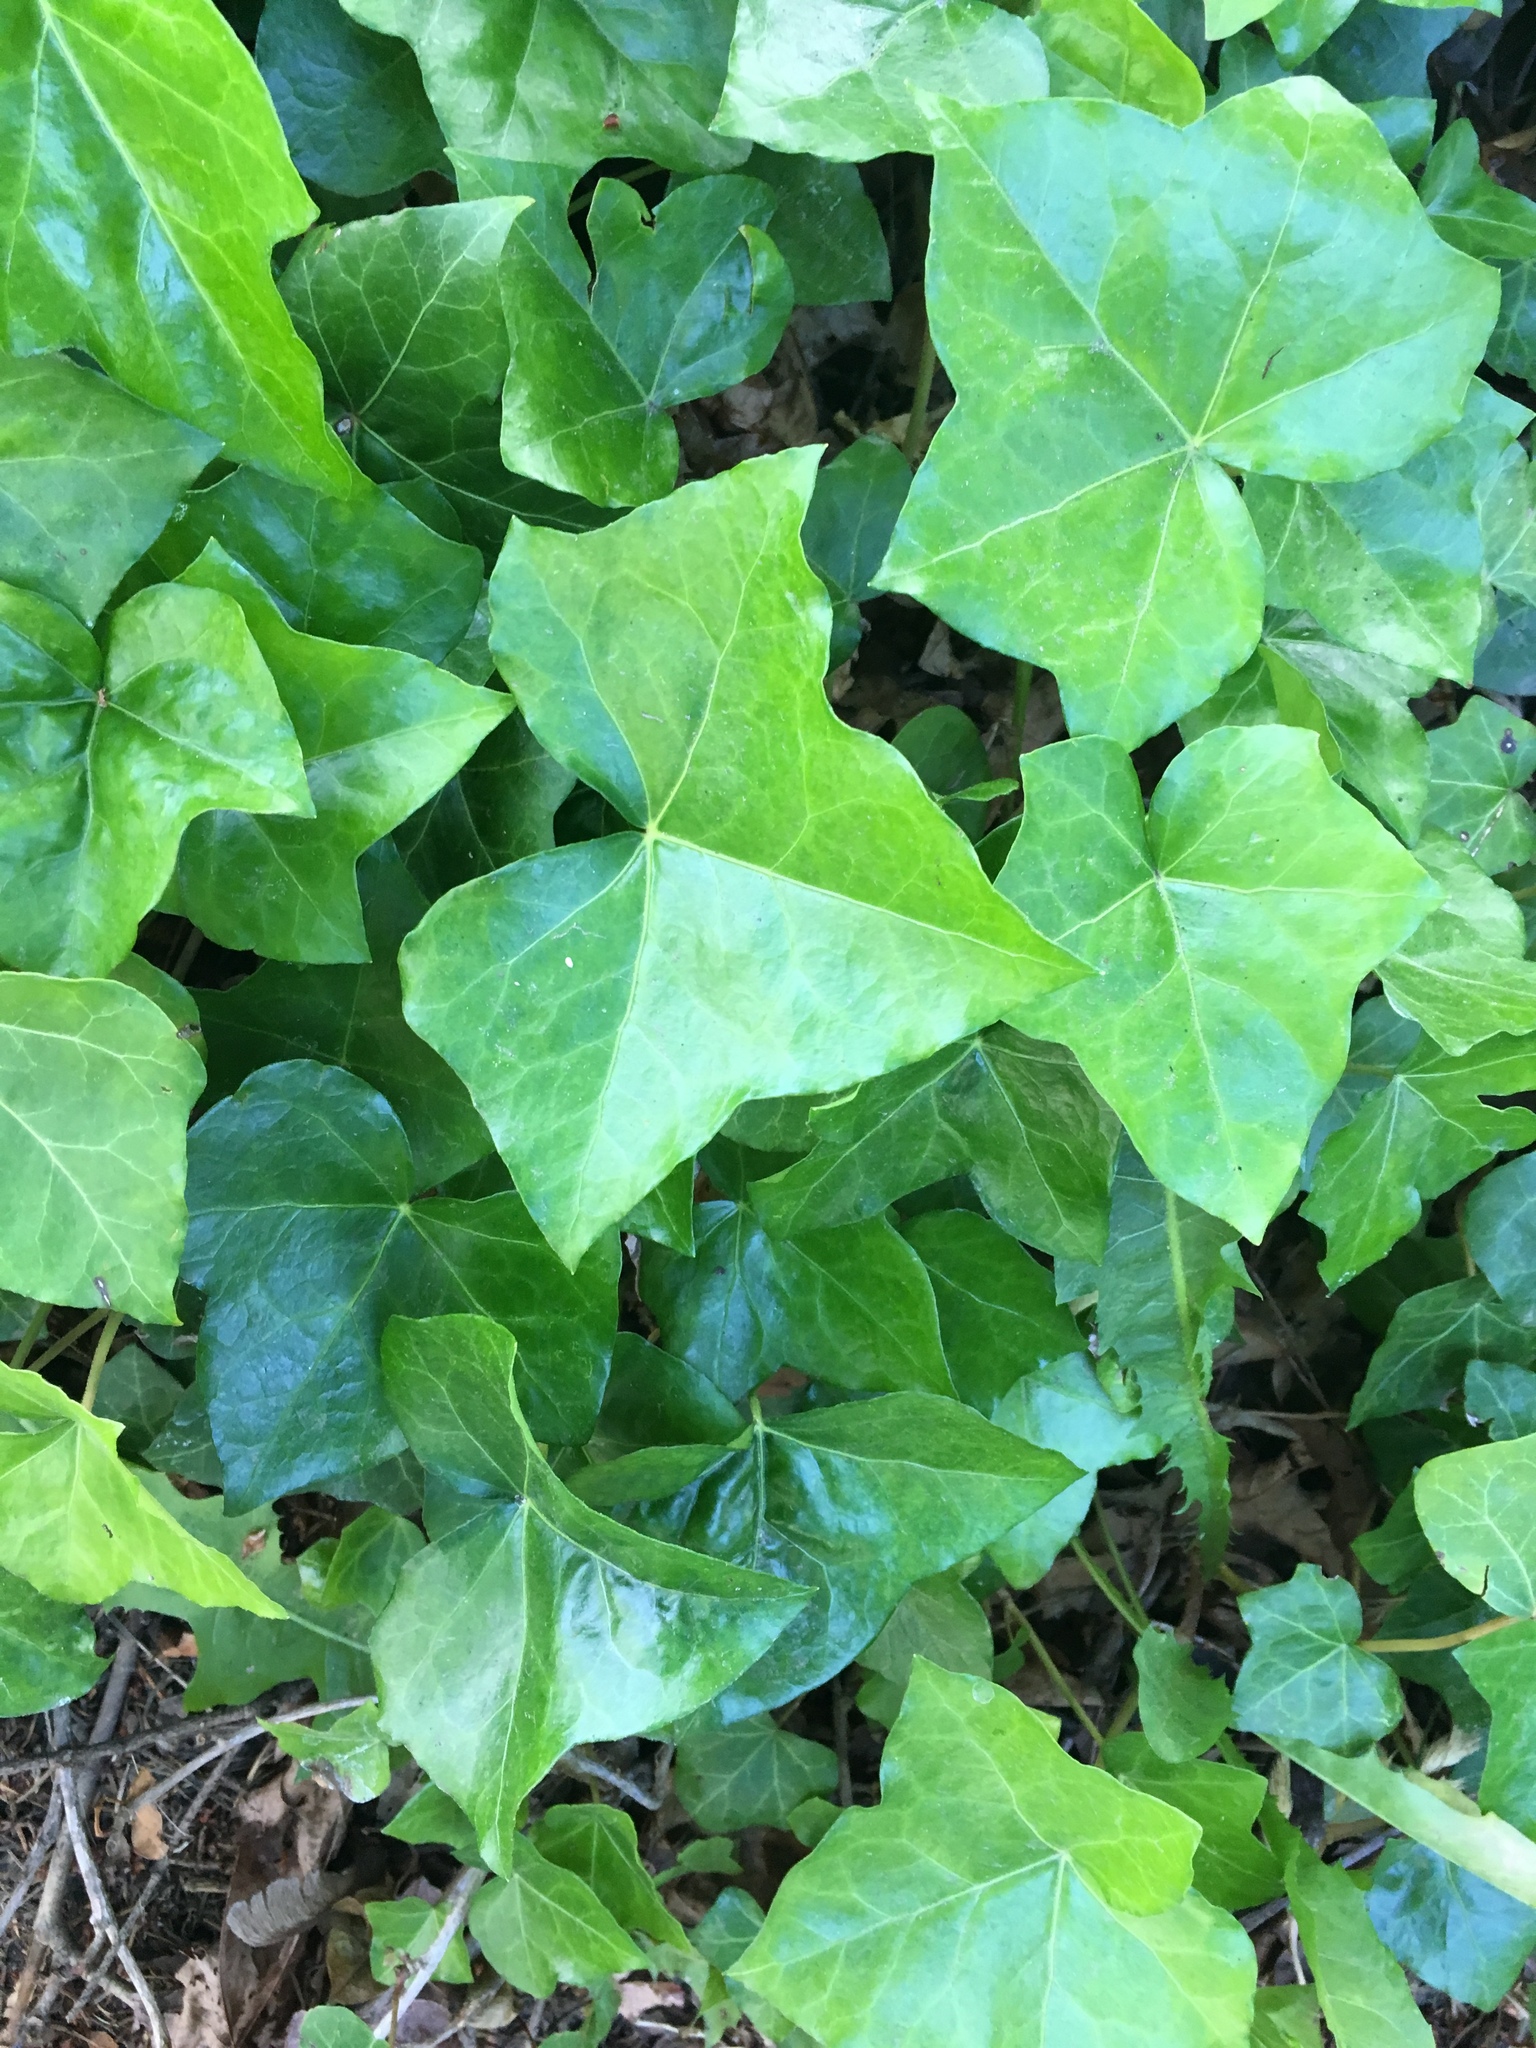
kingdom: Plantae
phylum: Tracheophyta
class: Magnoliopsida
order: Apiales
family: Araliaceae
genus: Hedera
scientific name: Hedera helix
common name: Ivy
